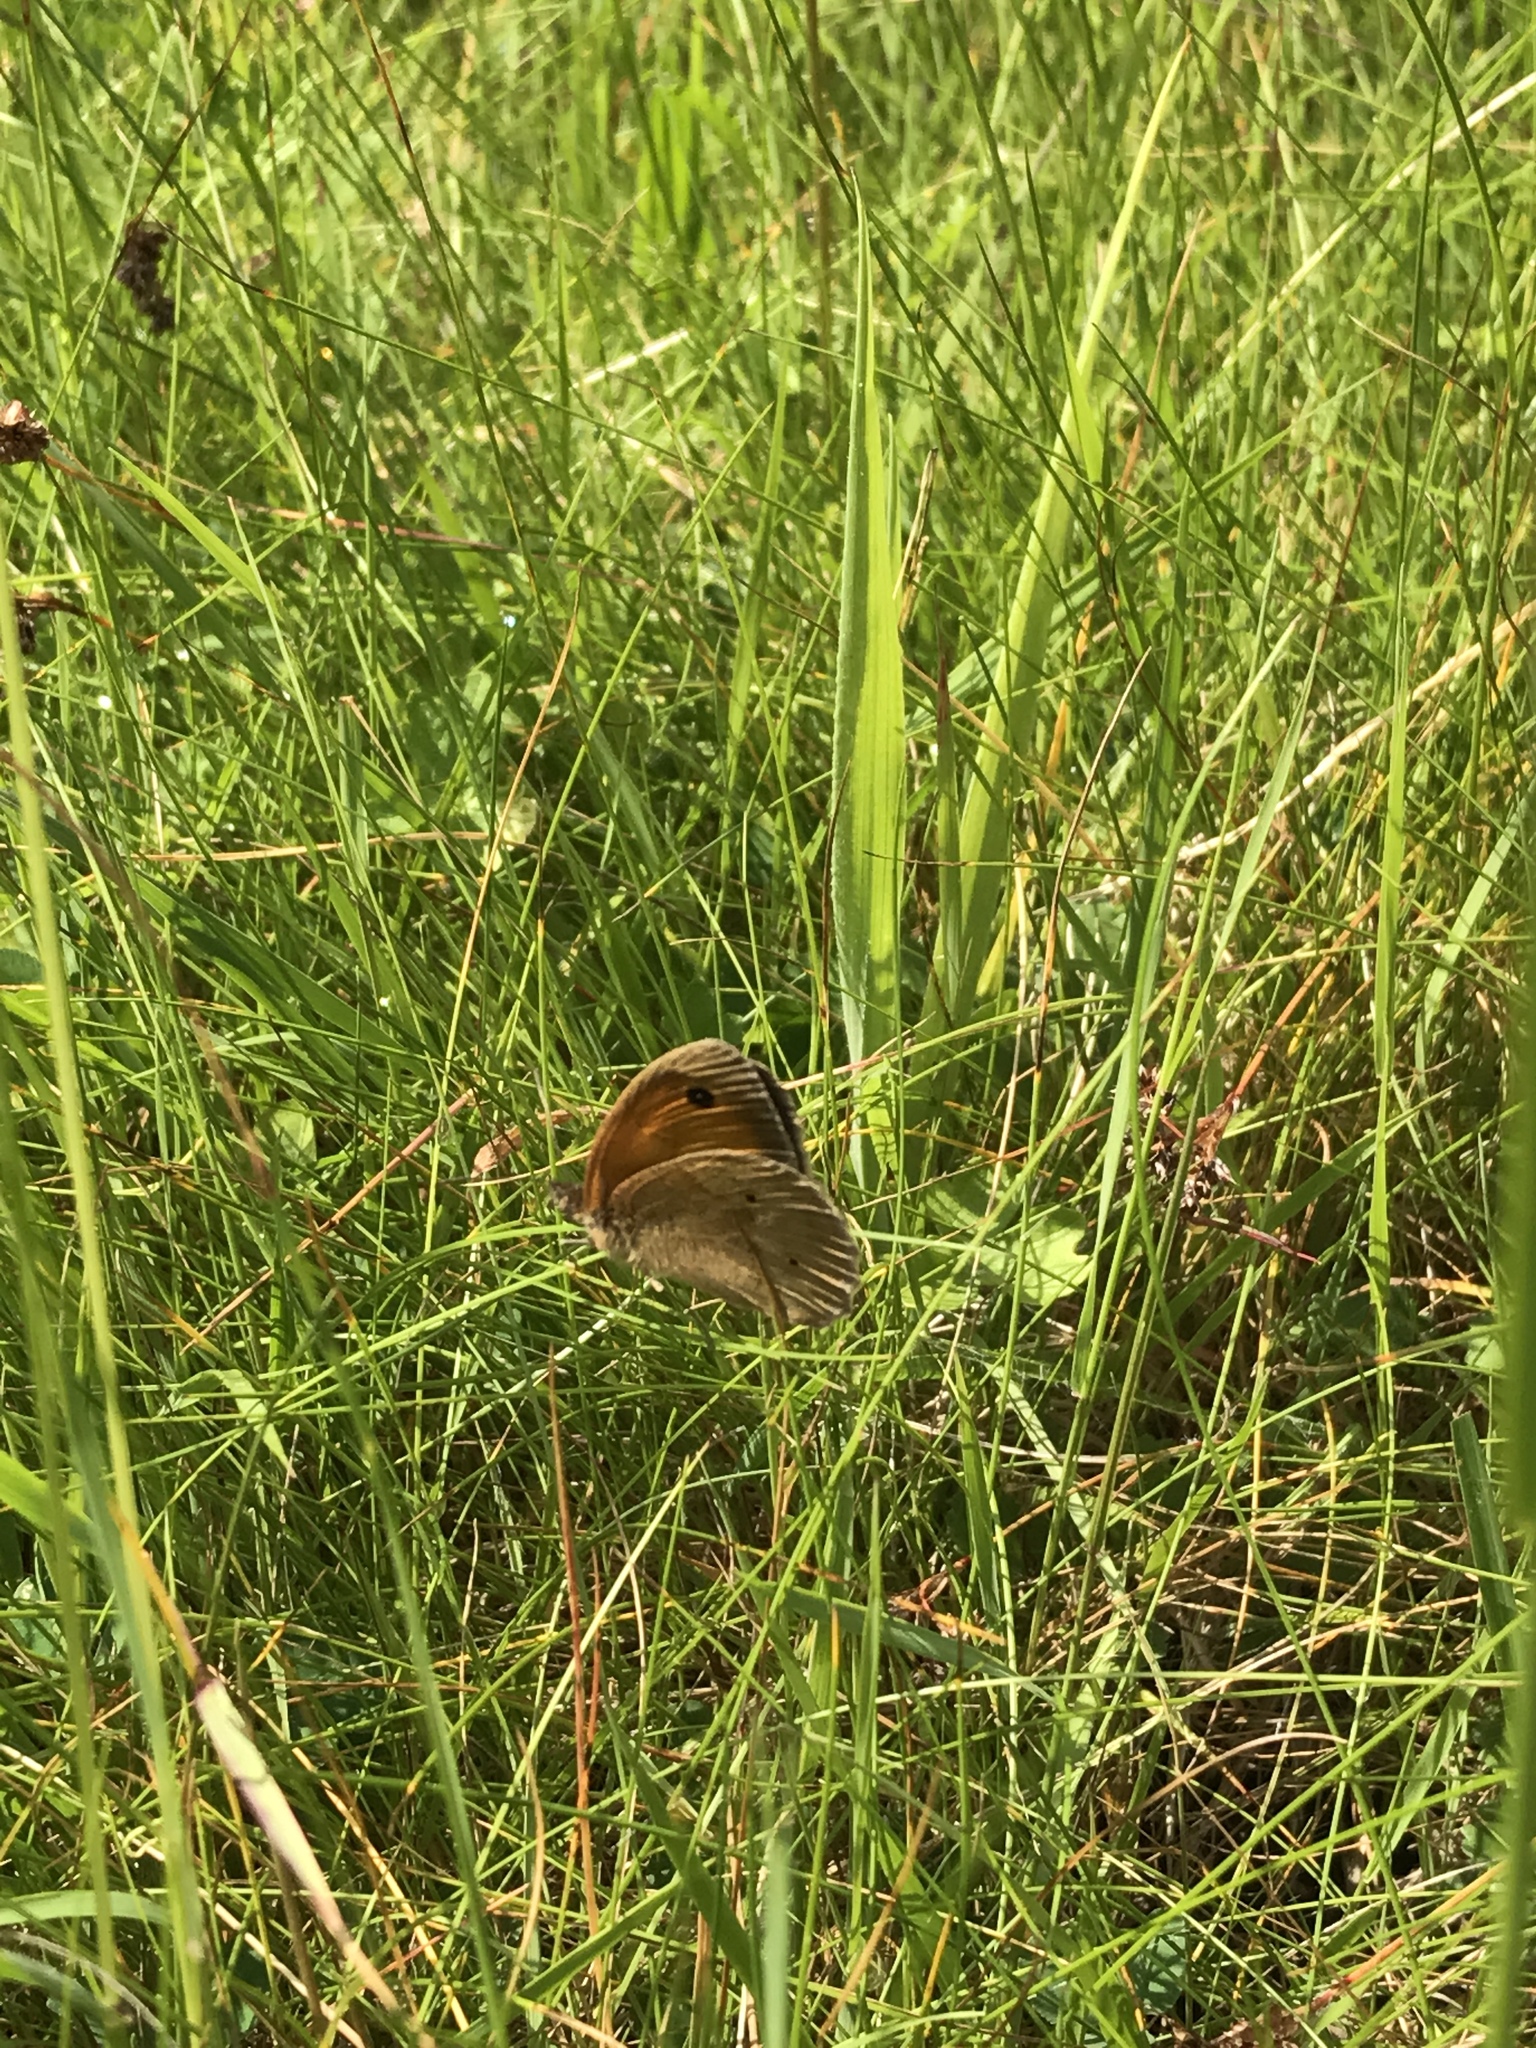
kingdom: Animalia
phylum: Arthropoda
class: Insecta
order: Lepidoptera
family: Nymphalidae
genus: Maniola
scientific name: Maniola jurtina
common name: Meadow brown
